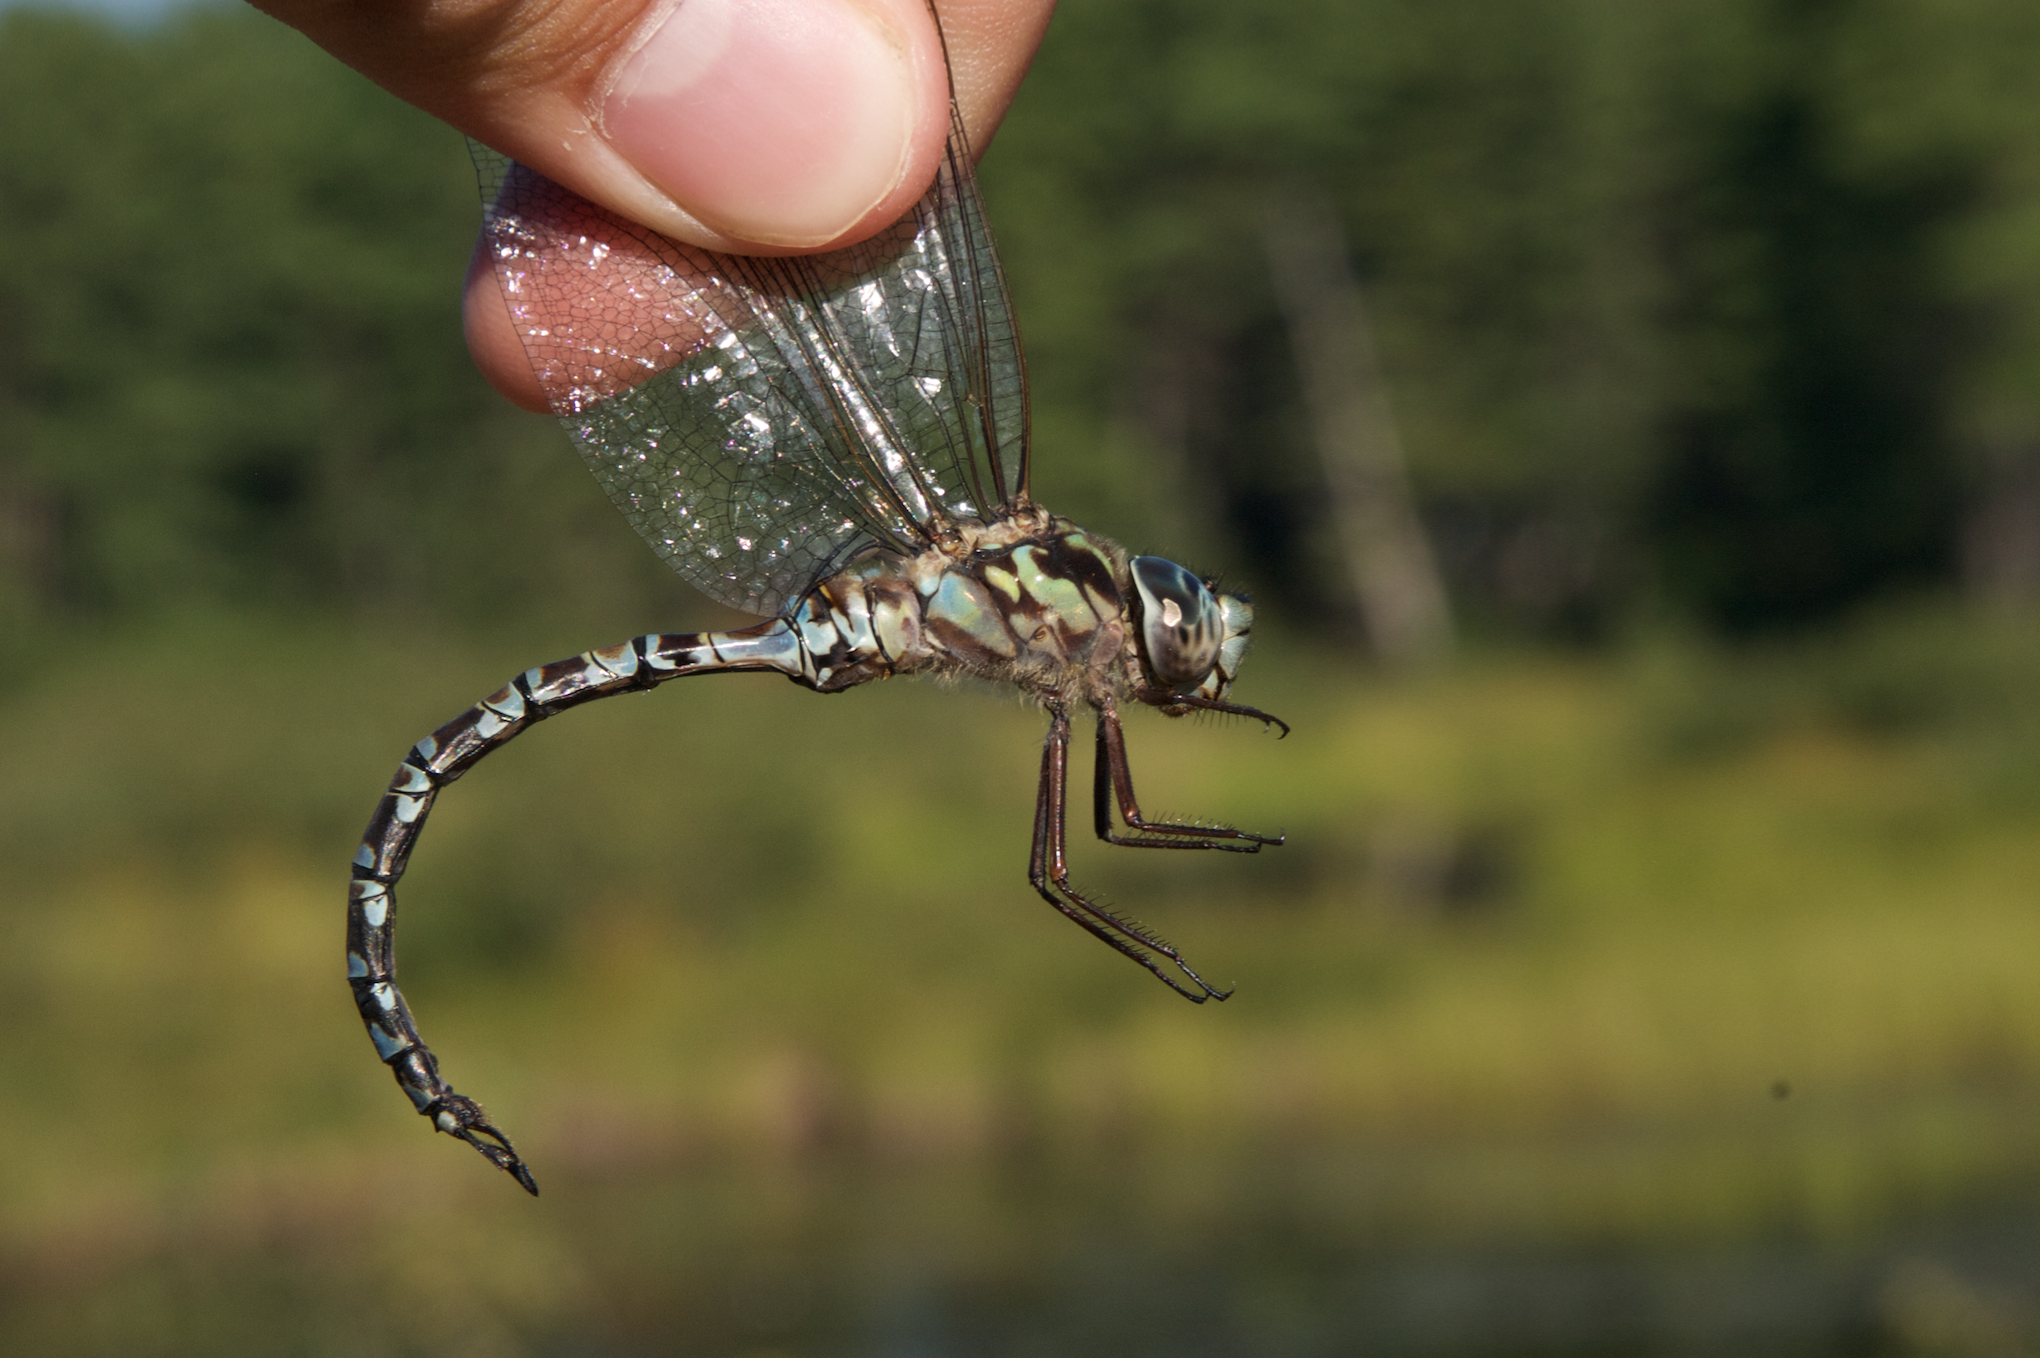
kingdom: Animalia
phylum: Arthropoda
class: Insecta
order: Odonata
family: Aeshnidae
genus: Aeshna
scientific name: Aeshna clepsydra
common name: Mottled darner
